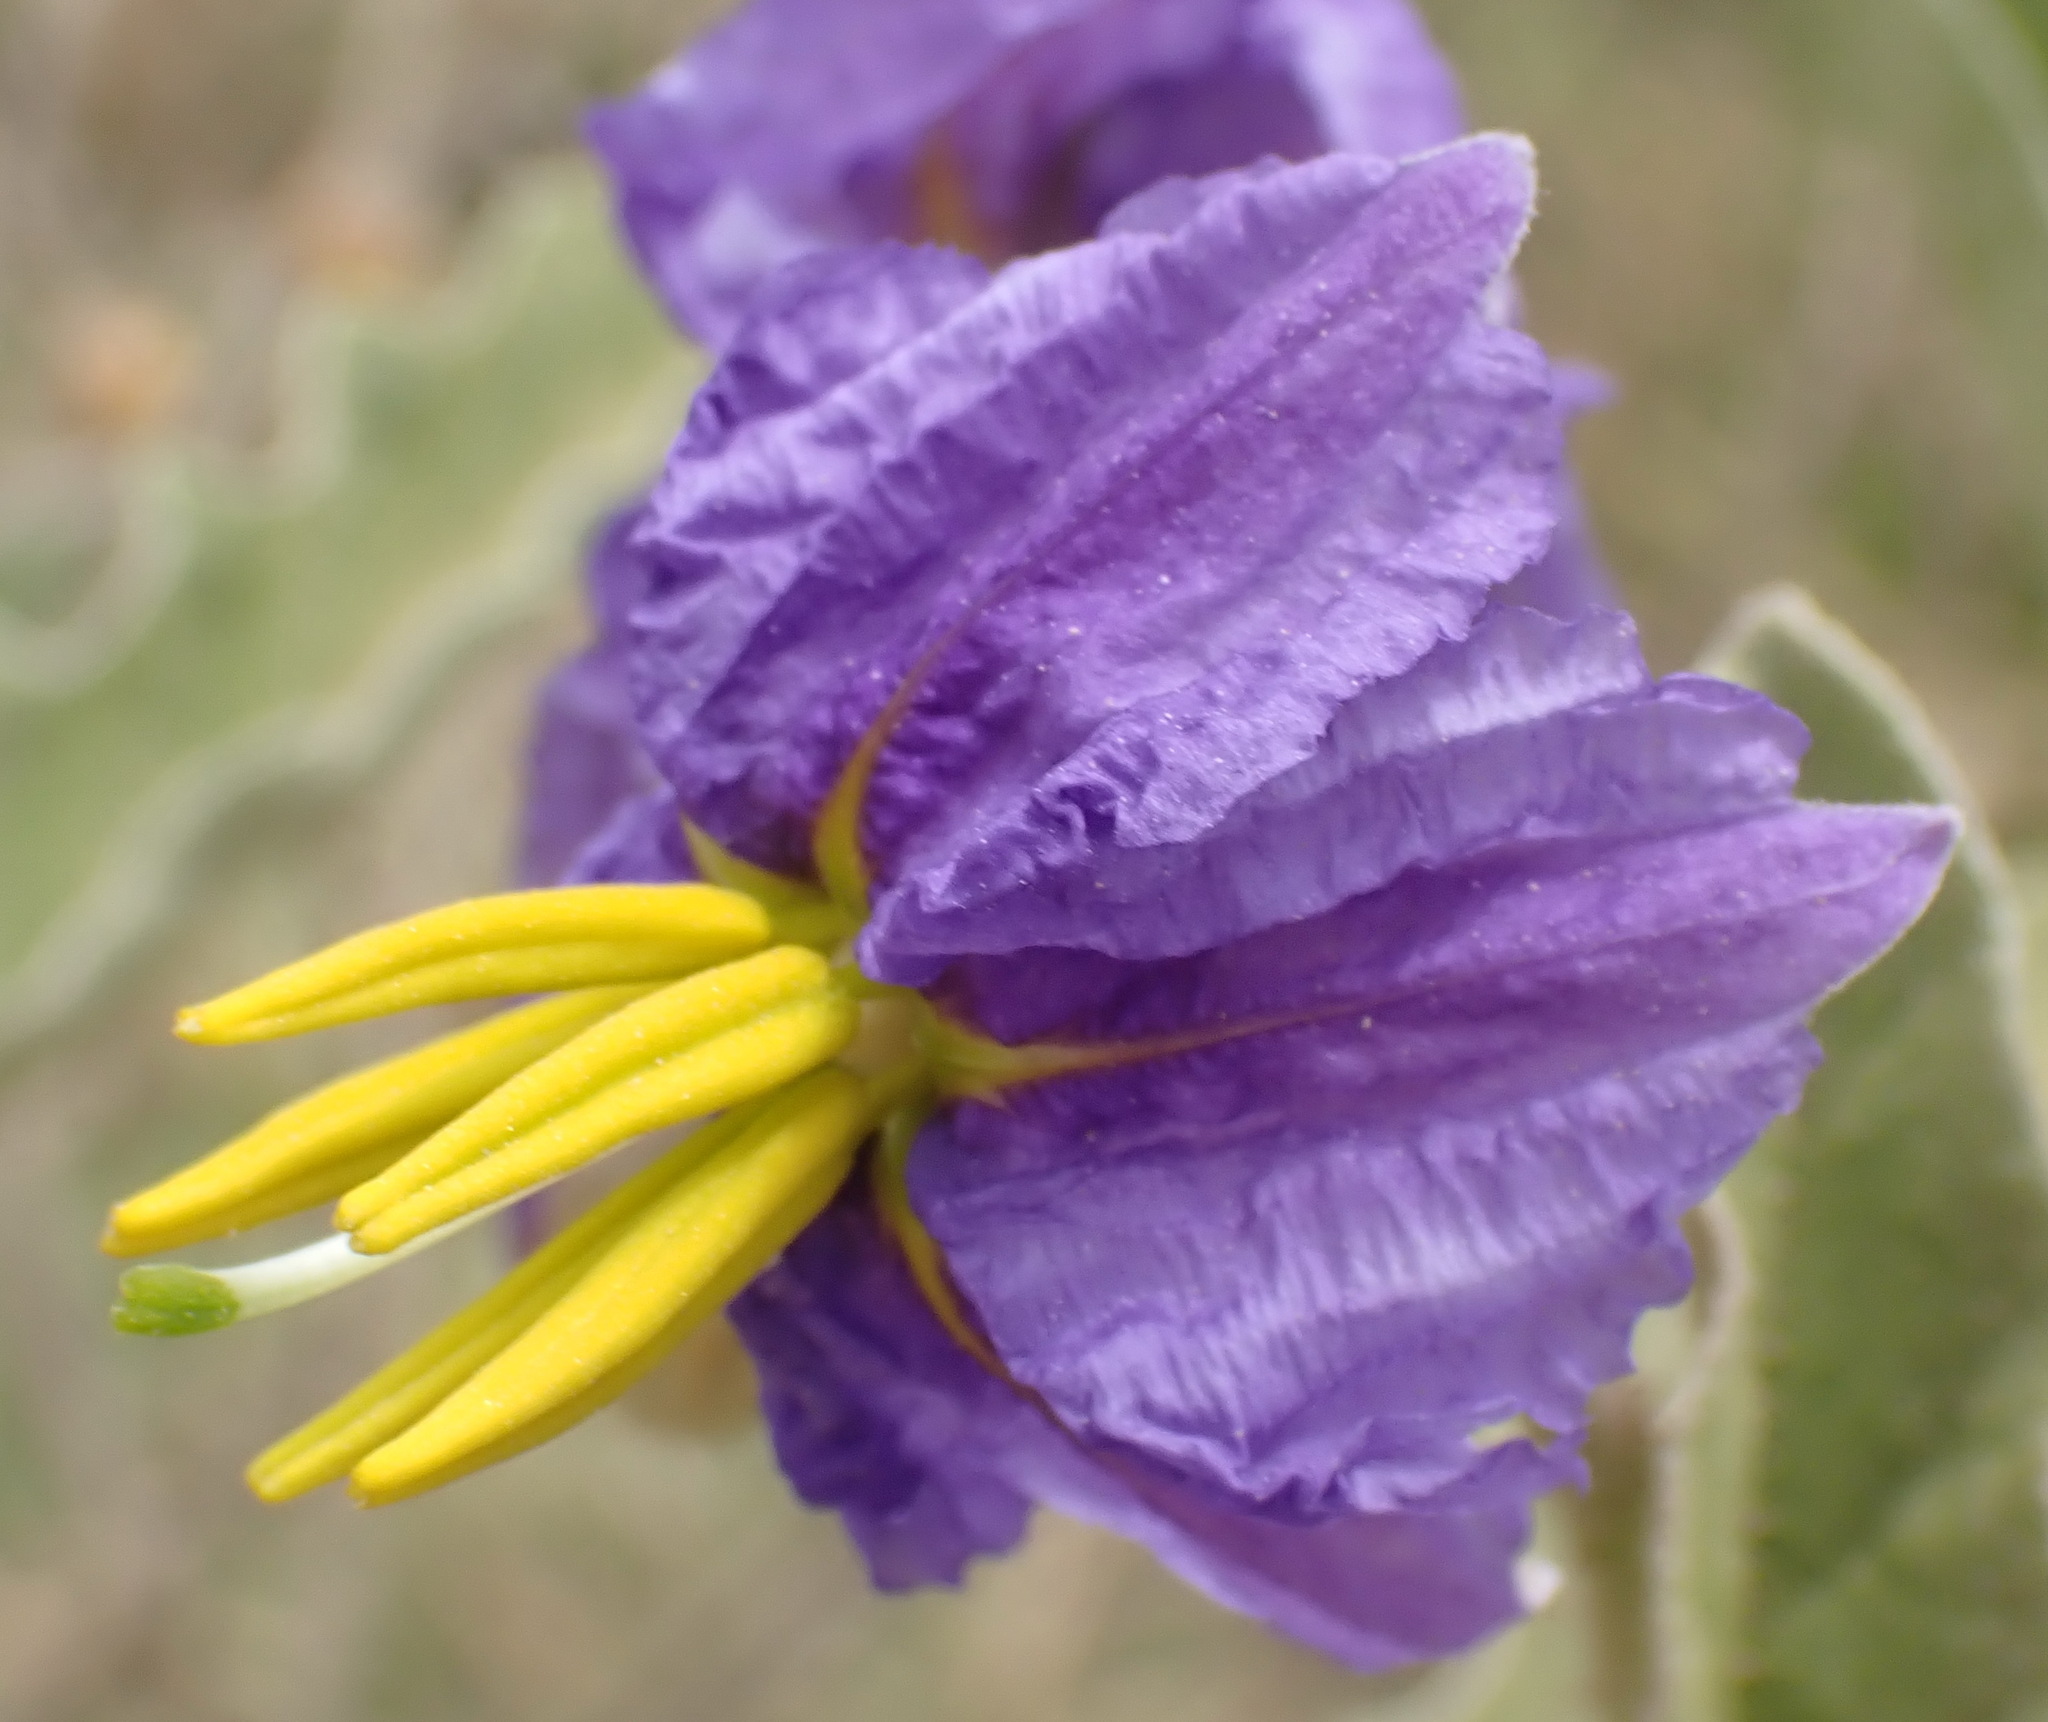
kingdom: Plantae
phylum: Tracheophyta
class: Magnoliopsida
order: Solanales
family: Solanaceae
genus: Solanum
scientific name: Solanum elaeagnifolium
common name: Silverleaf nightshade
